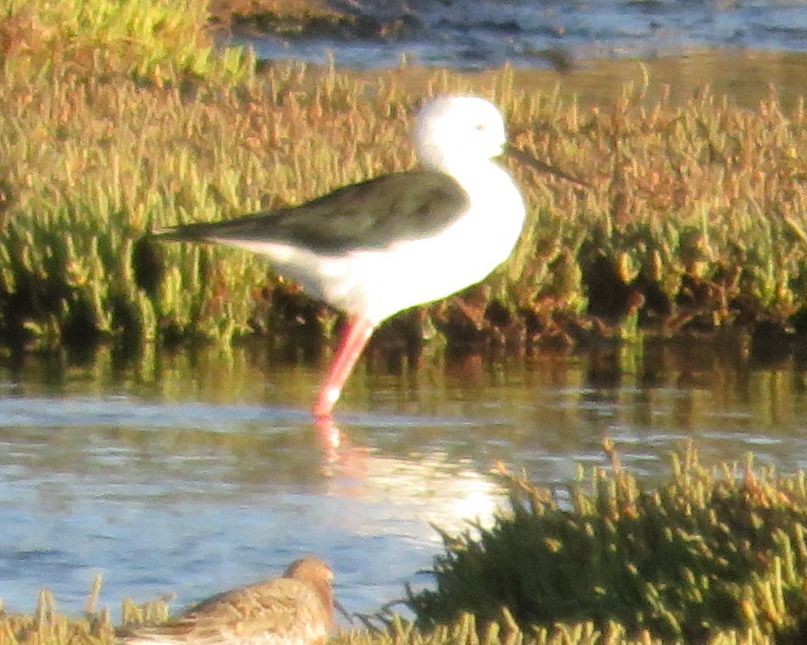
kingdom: Animalia
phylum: Chordata
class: Aves
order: Charadriiformes
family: Recurvirostridae
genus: Himantopus
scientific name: Himantopus himantopus
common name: Black-winged stilt
